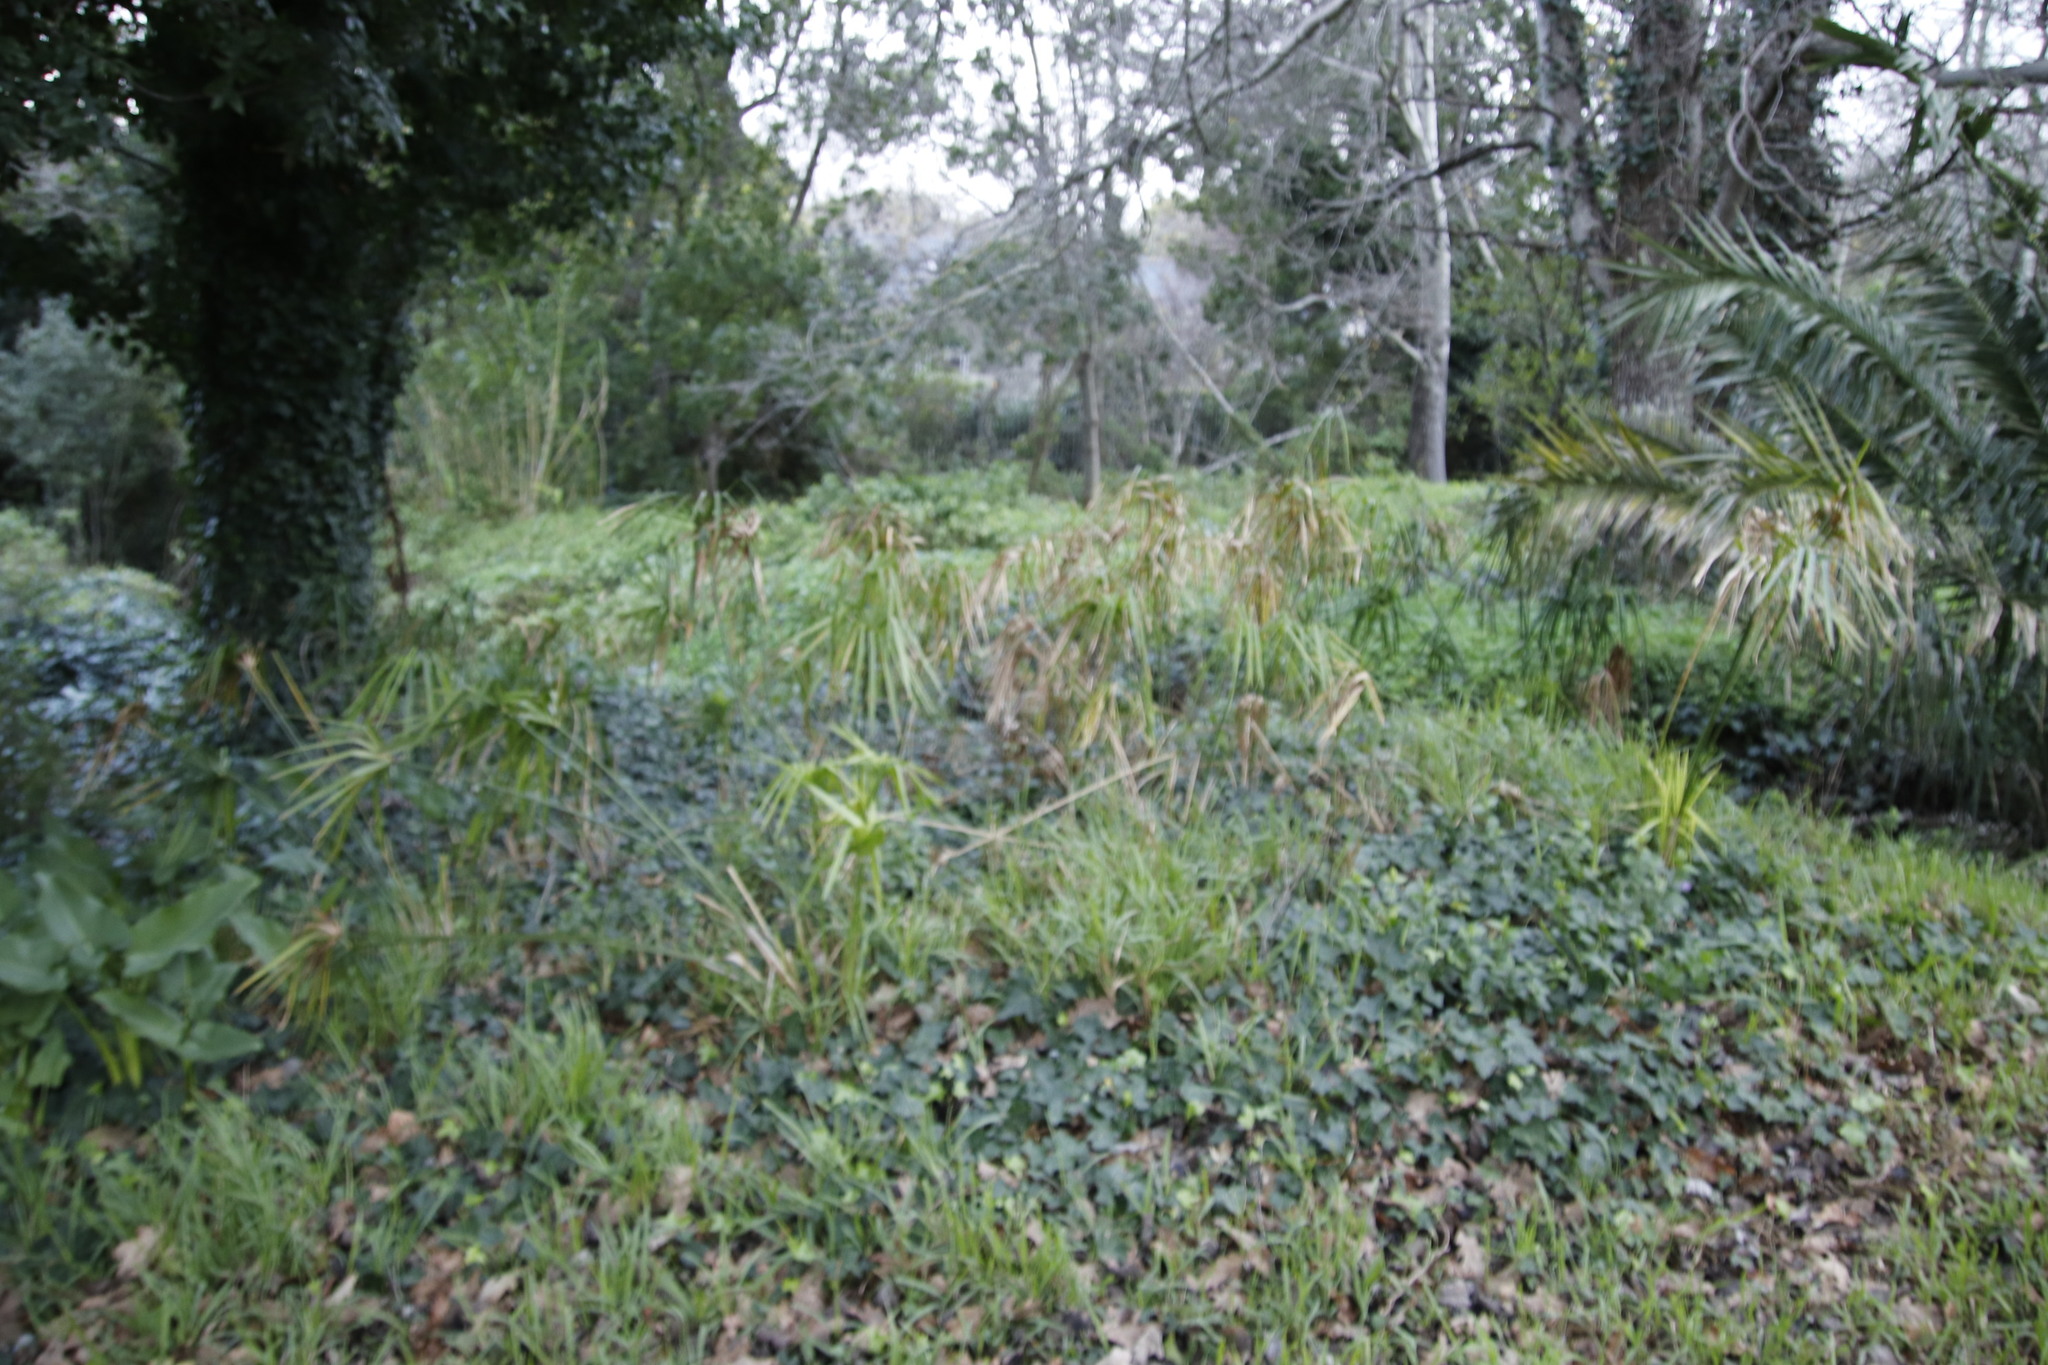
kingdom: Plantae
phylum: Tracheophyta
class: Liliopsida
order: Poales
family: Cyperaceae
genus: Cyperus
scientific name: Cyperus textilis
